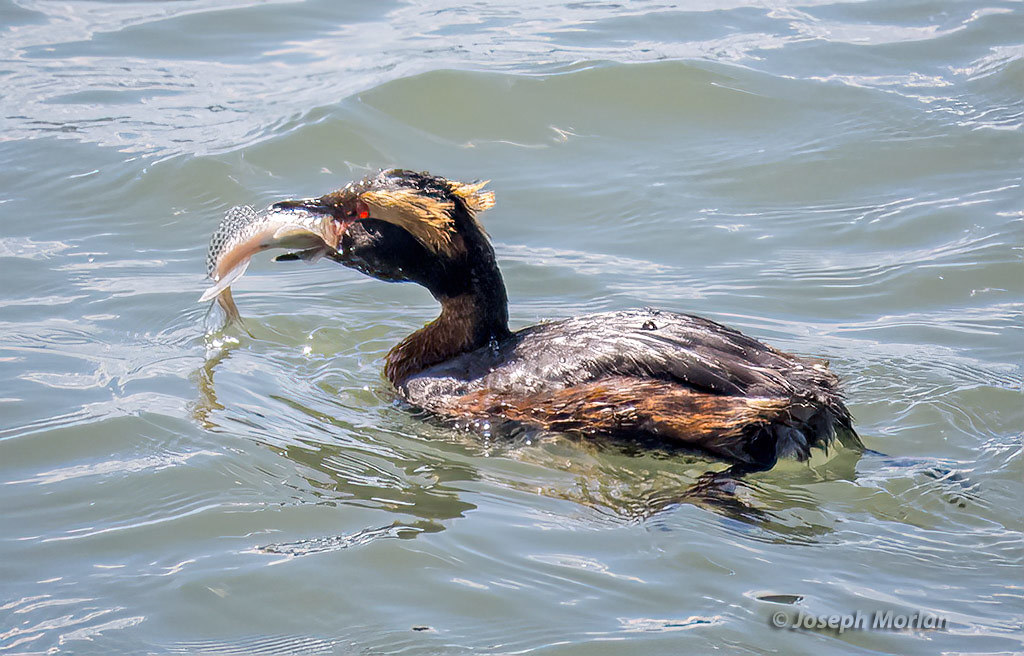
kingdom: Animalia
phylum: Chordata
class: Aves
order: Podicipediformes
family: Podicipedidae
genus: Podiceps
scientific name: Podiceps auritus
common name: Horned grebe
